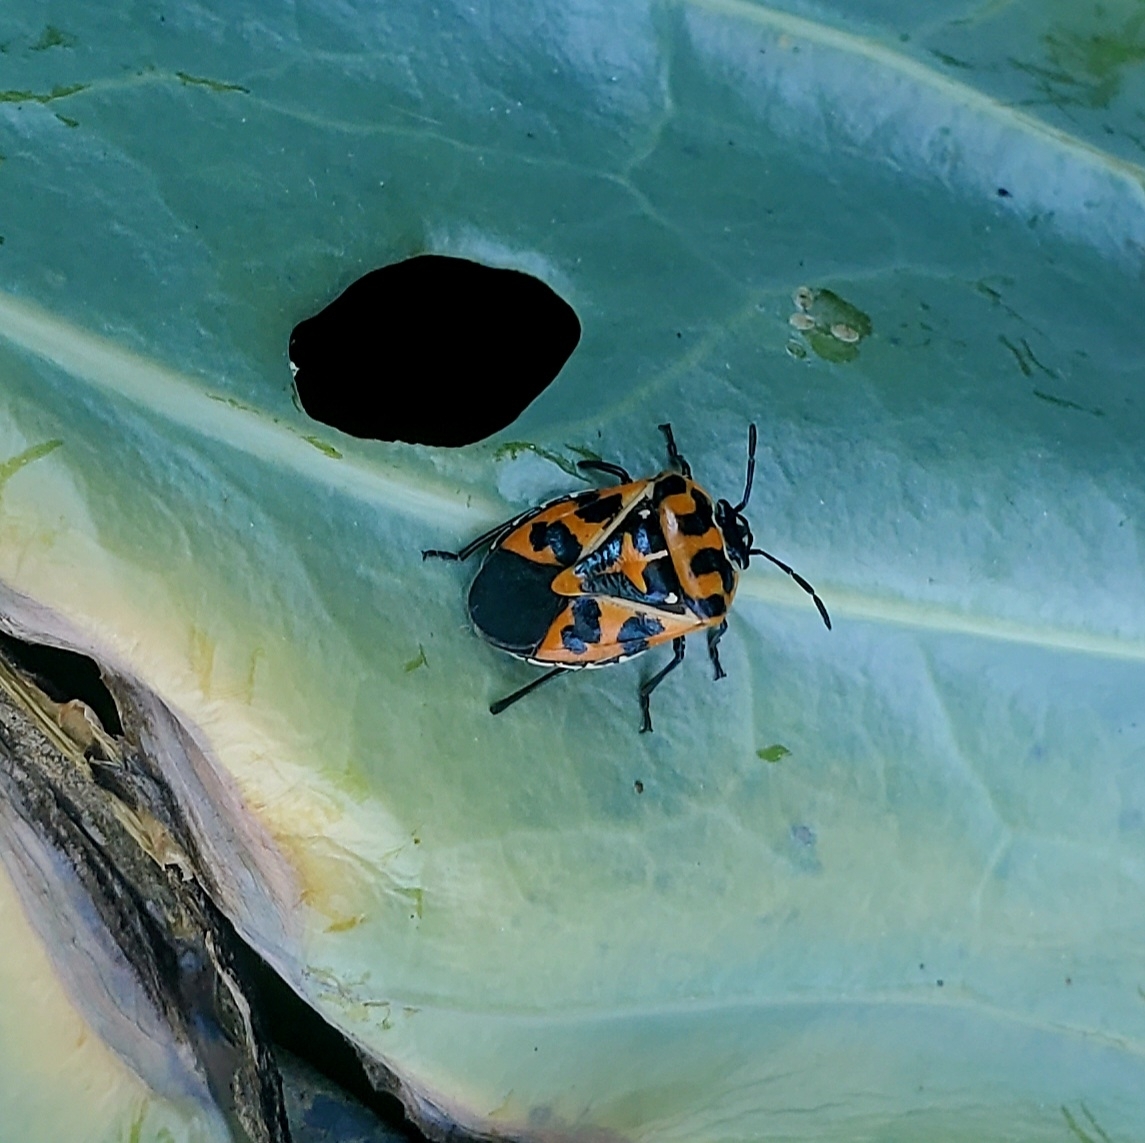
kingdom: Animalia
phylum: Arthropoda
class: Insecta
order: Hemiptera
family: Pentatomidae
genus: Murgantia
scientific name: Murgantia histrionica
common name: Harlequin bug
